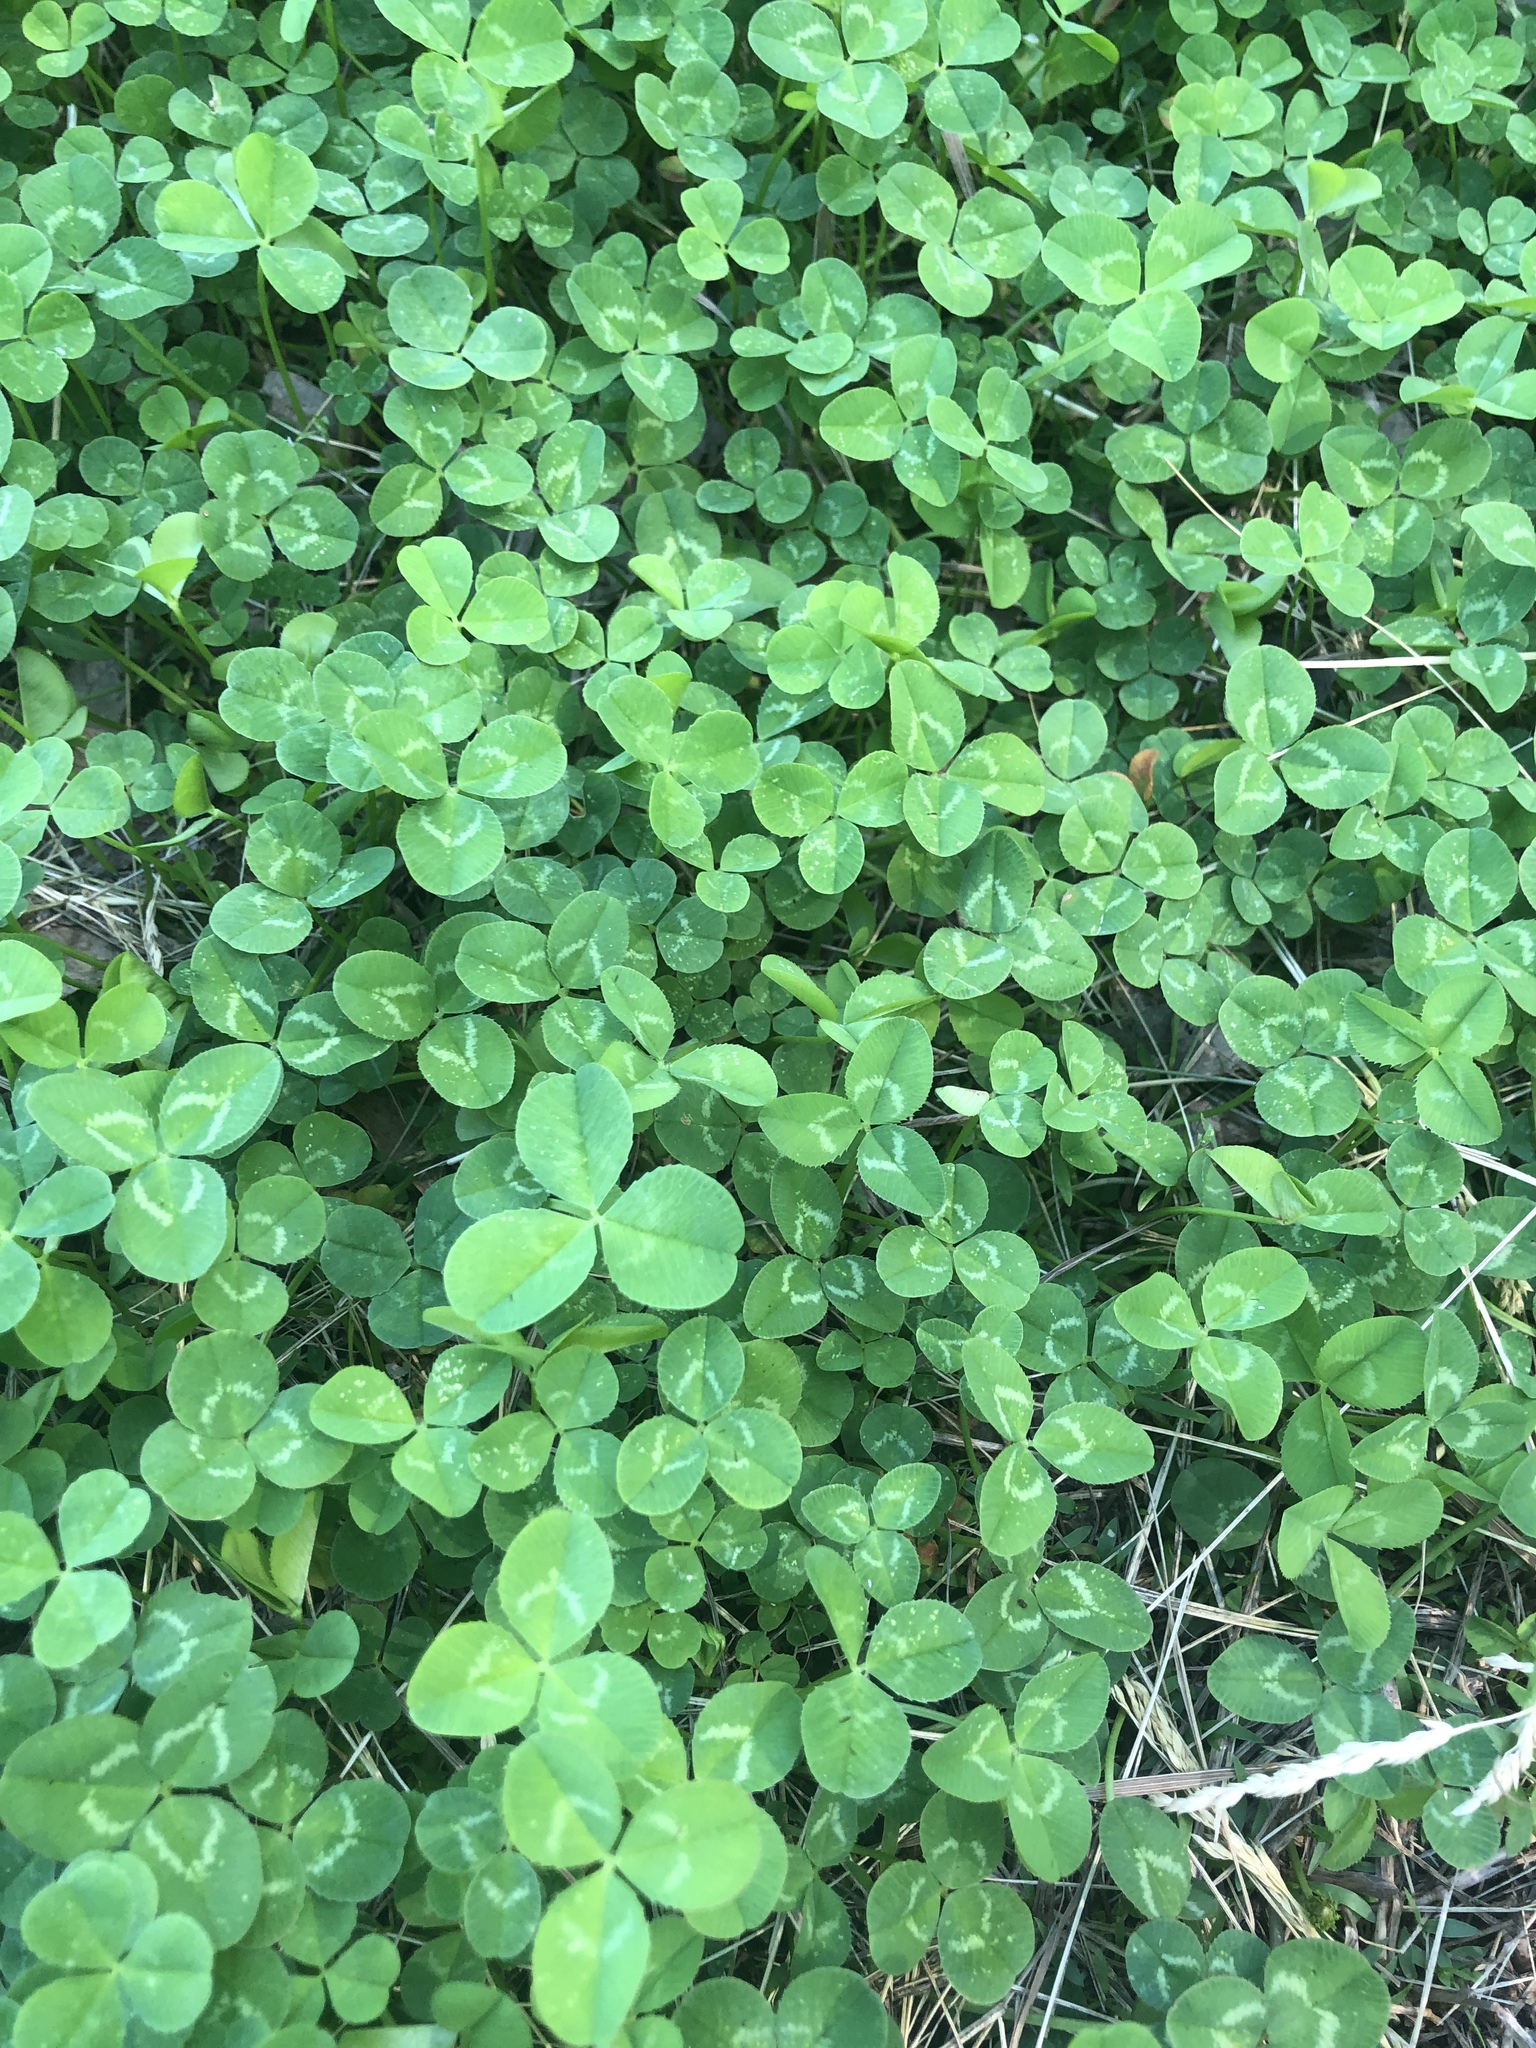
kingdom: Plantae
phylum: Tracheophyta
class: Magnoliopsida
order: Fabales
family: Fabaceae
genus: Trifolium
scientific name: Trifolium repens
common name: White clover
